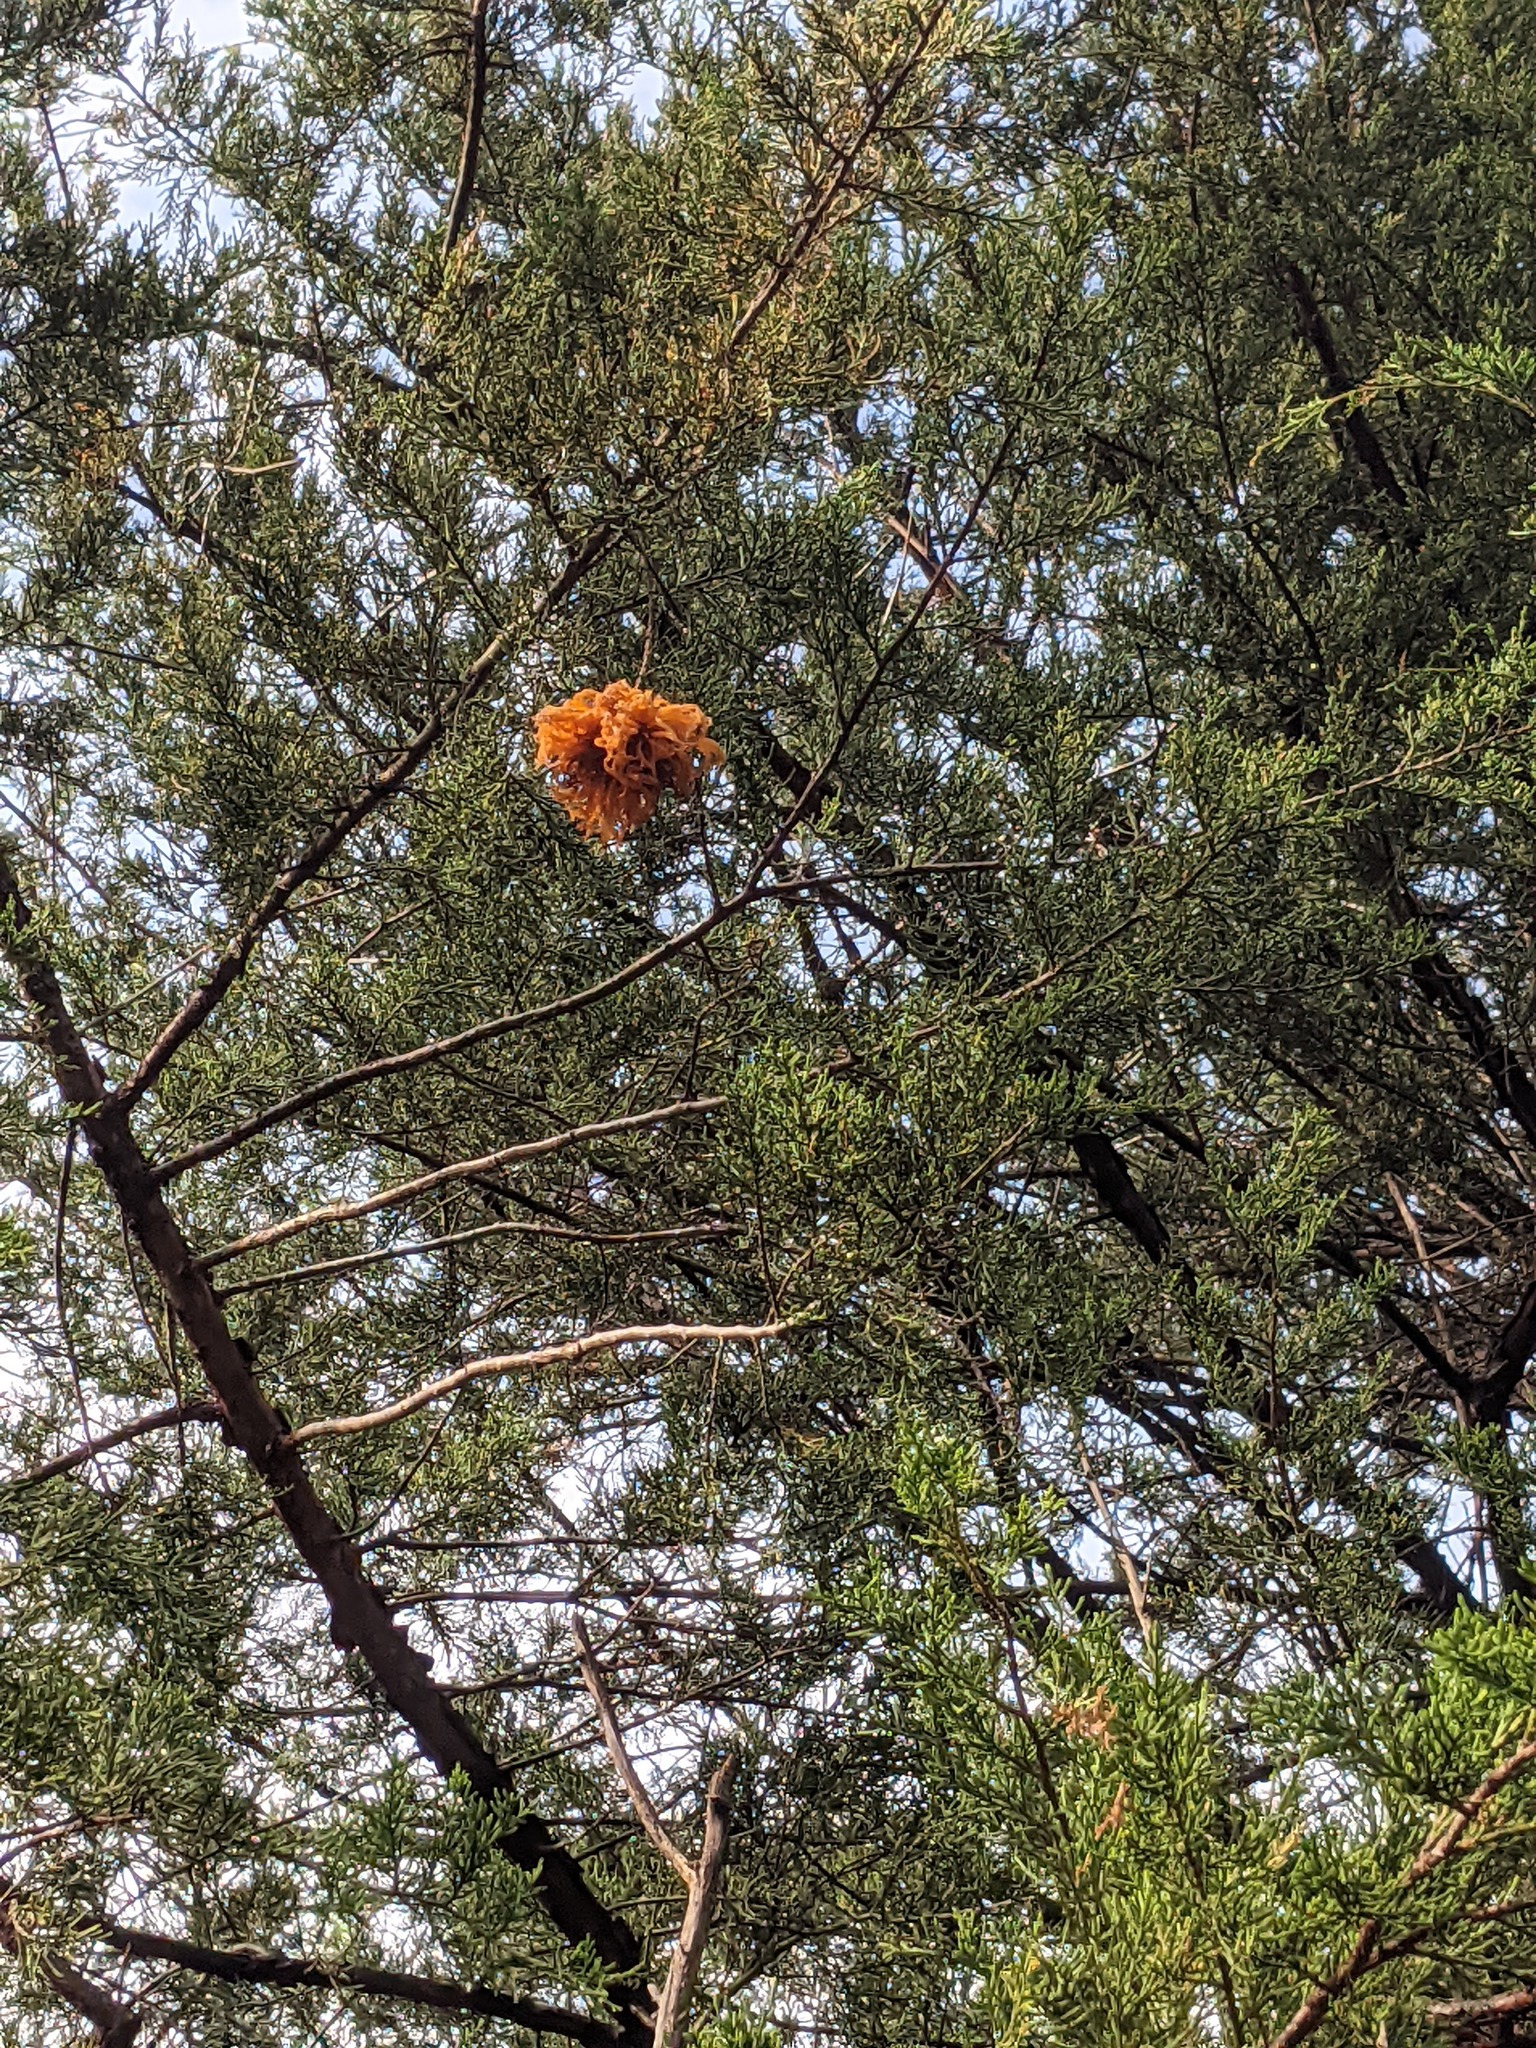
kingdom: Fungi
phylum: Basidiomycota
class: Pucciniomycetes
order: Pucciniales
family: Gymnosporangiaceae
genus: Gymnosporangium
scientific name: Gymnosporangium juniperi-virginianae
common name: Juniper-apple rust
